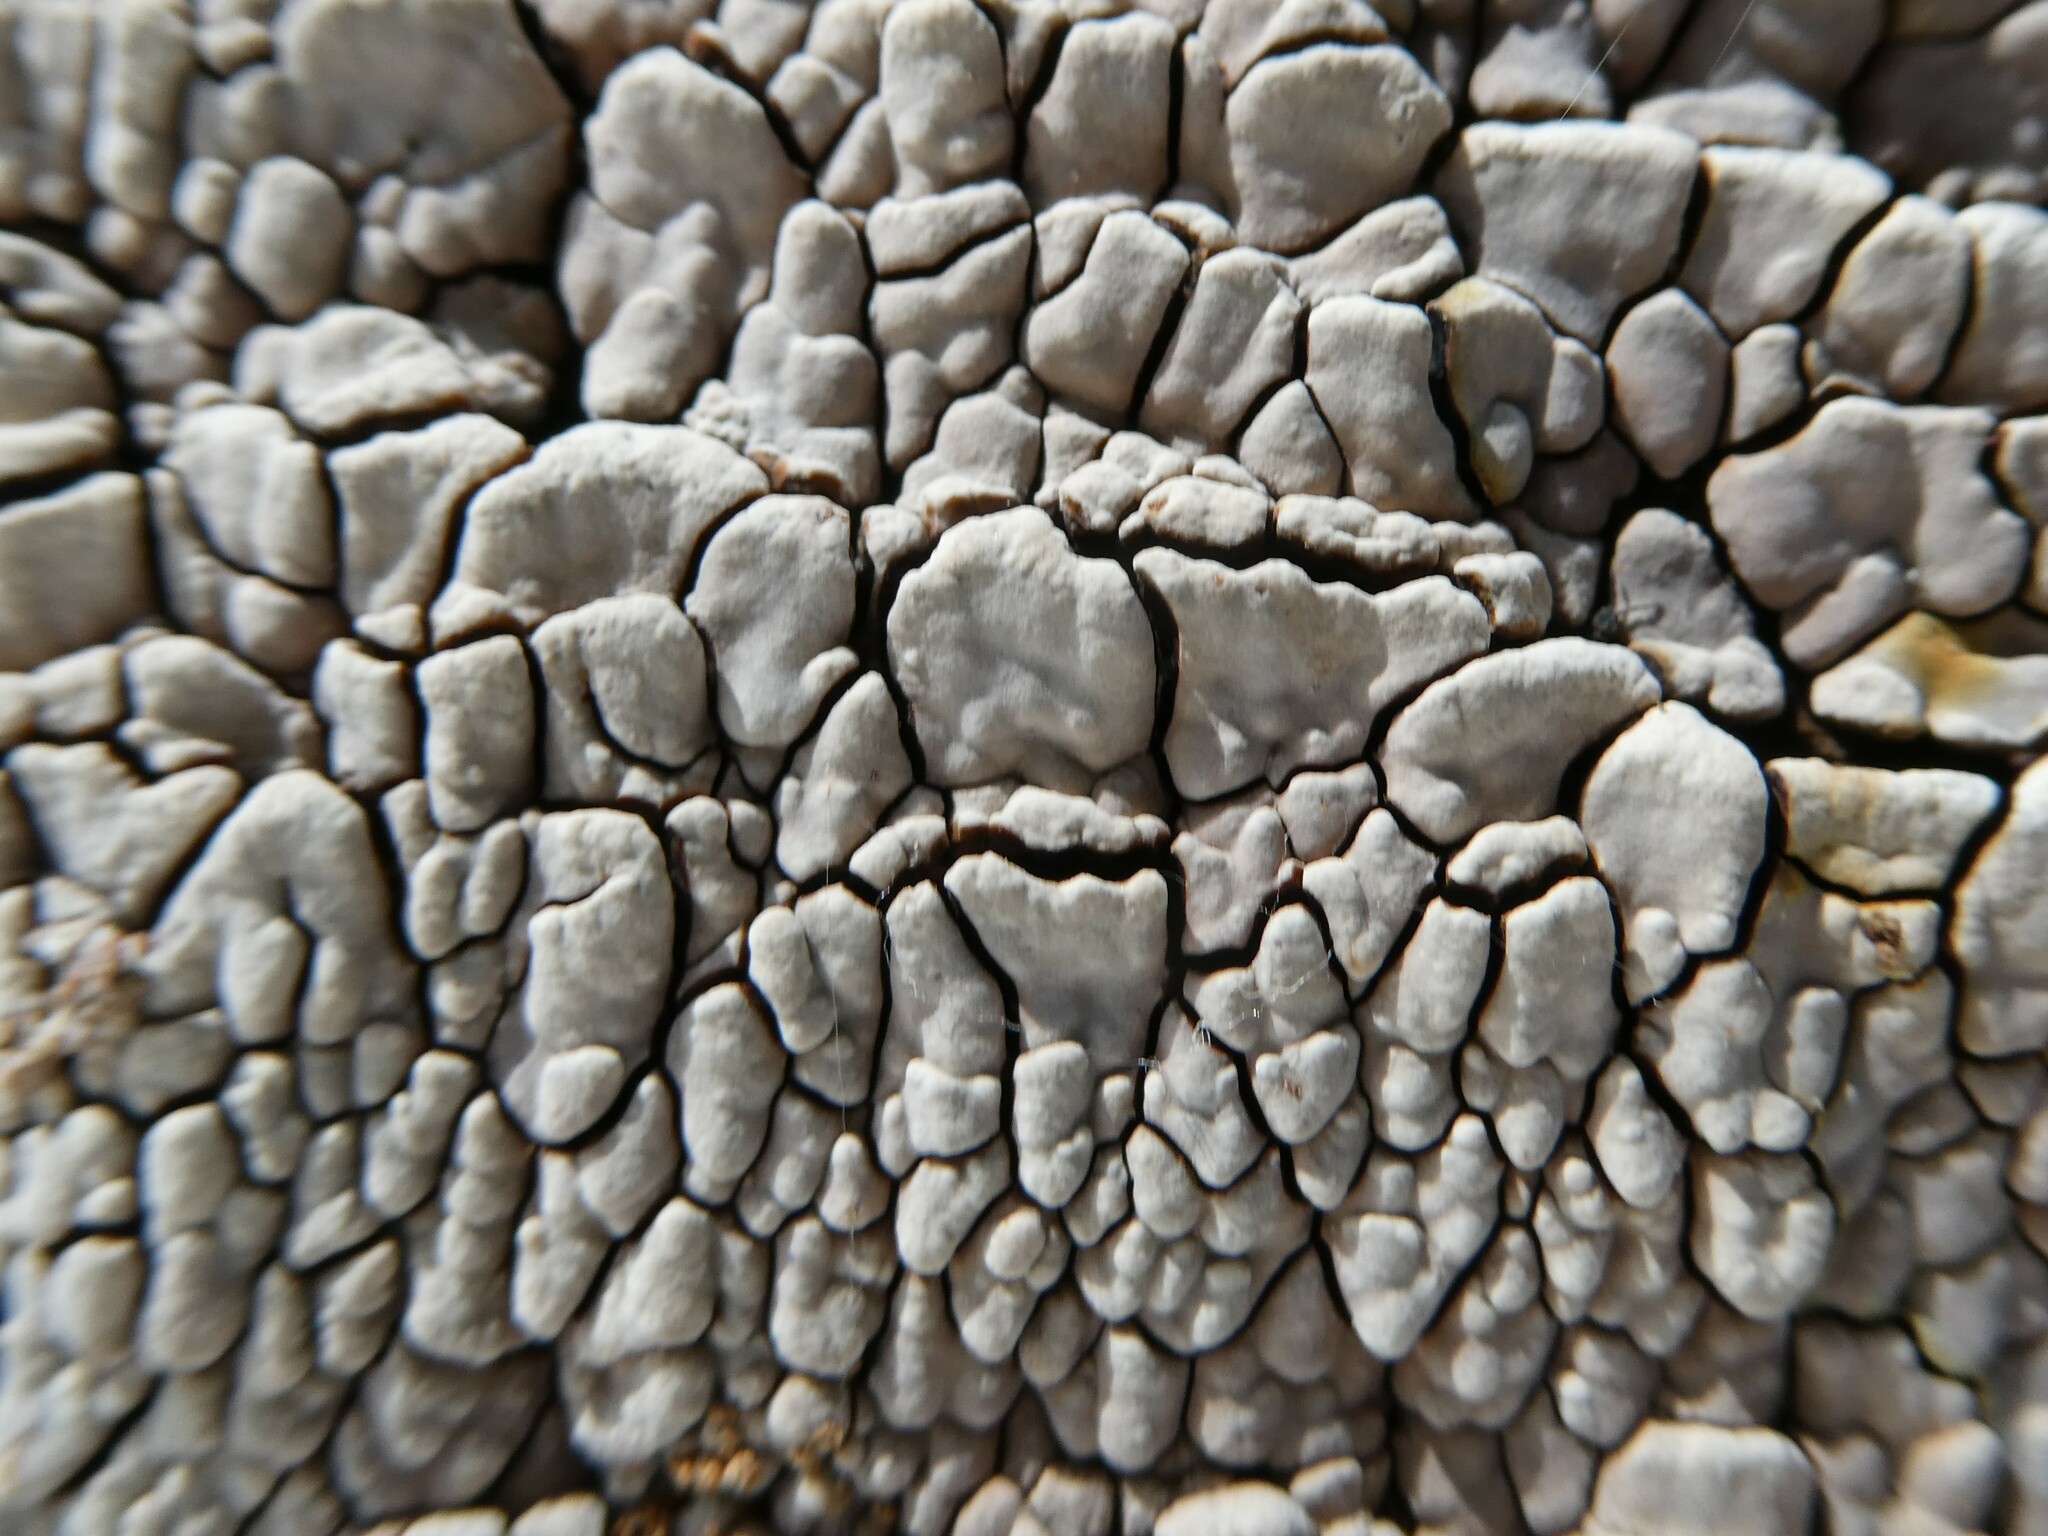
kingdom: Fungi
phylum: Basidiomycota
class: Agaricomycetes
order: Russulales
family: Stereaceae
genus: Xylobolus
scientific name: Xylobolus frustulatus
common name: Ceramic parchment
